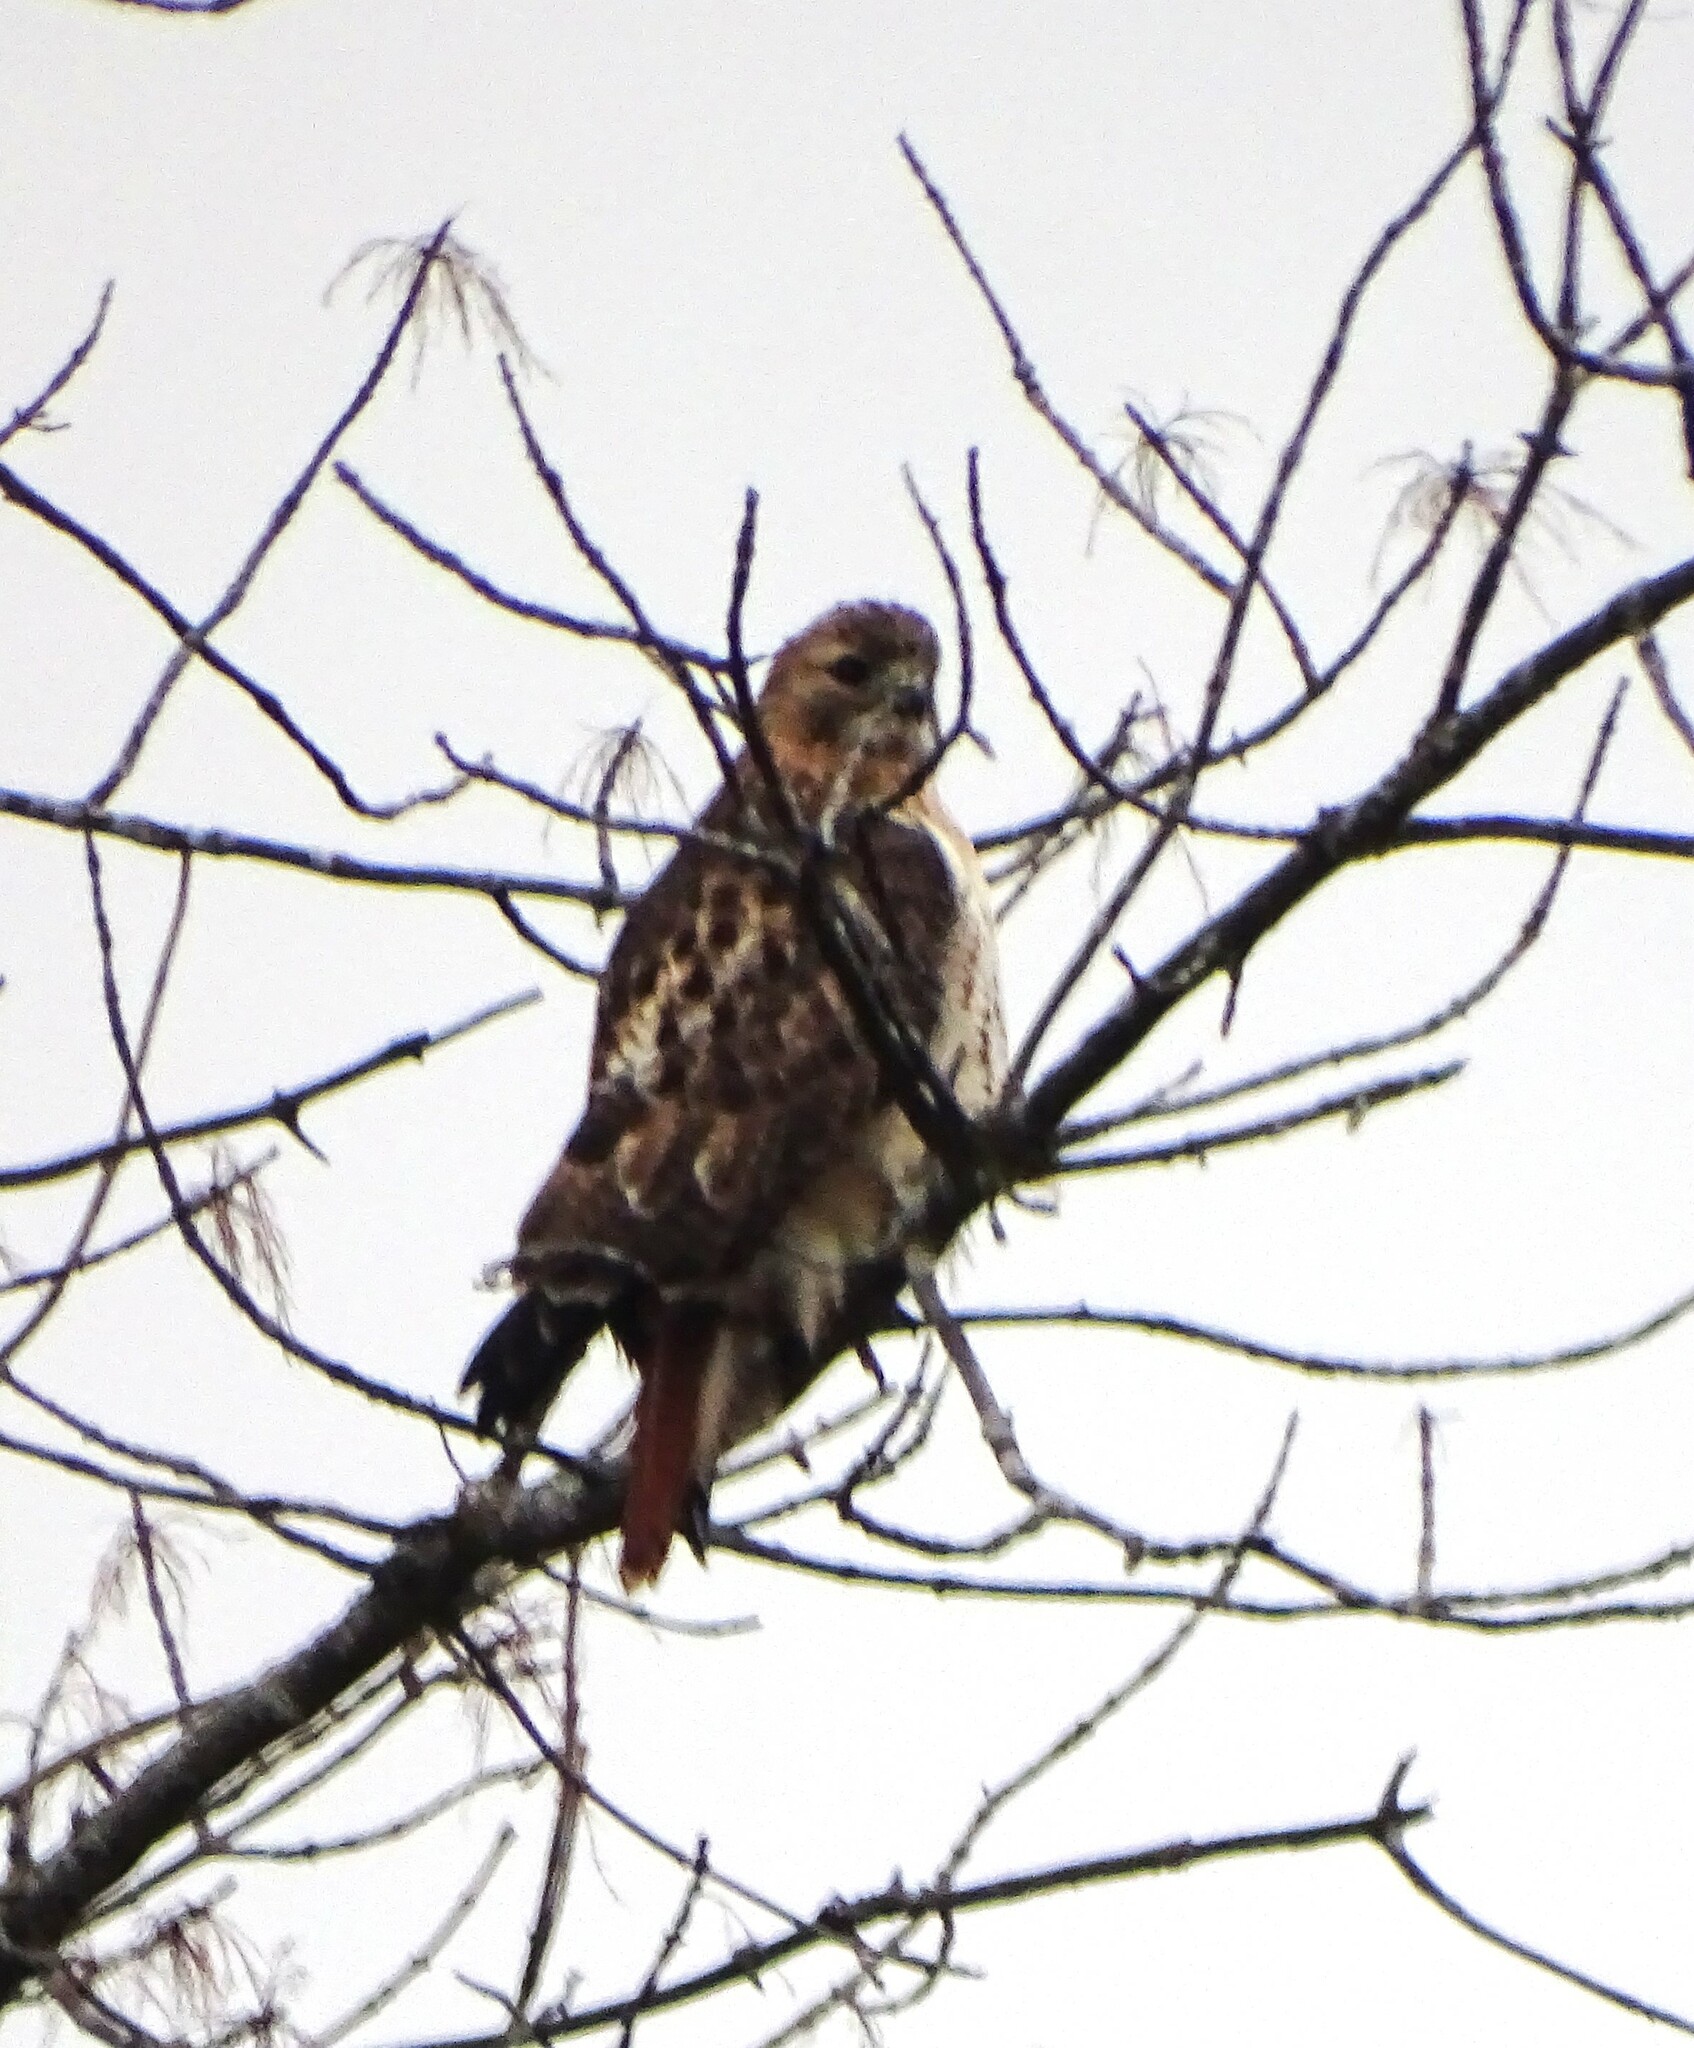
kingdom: Animalia
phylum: Chordata
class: Aves
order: Accipitriformes
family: Accipitridae
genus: Buteo
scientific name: Buteo jamaicensis
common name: Red-tailed hawk
